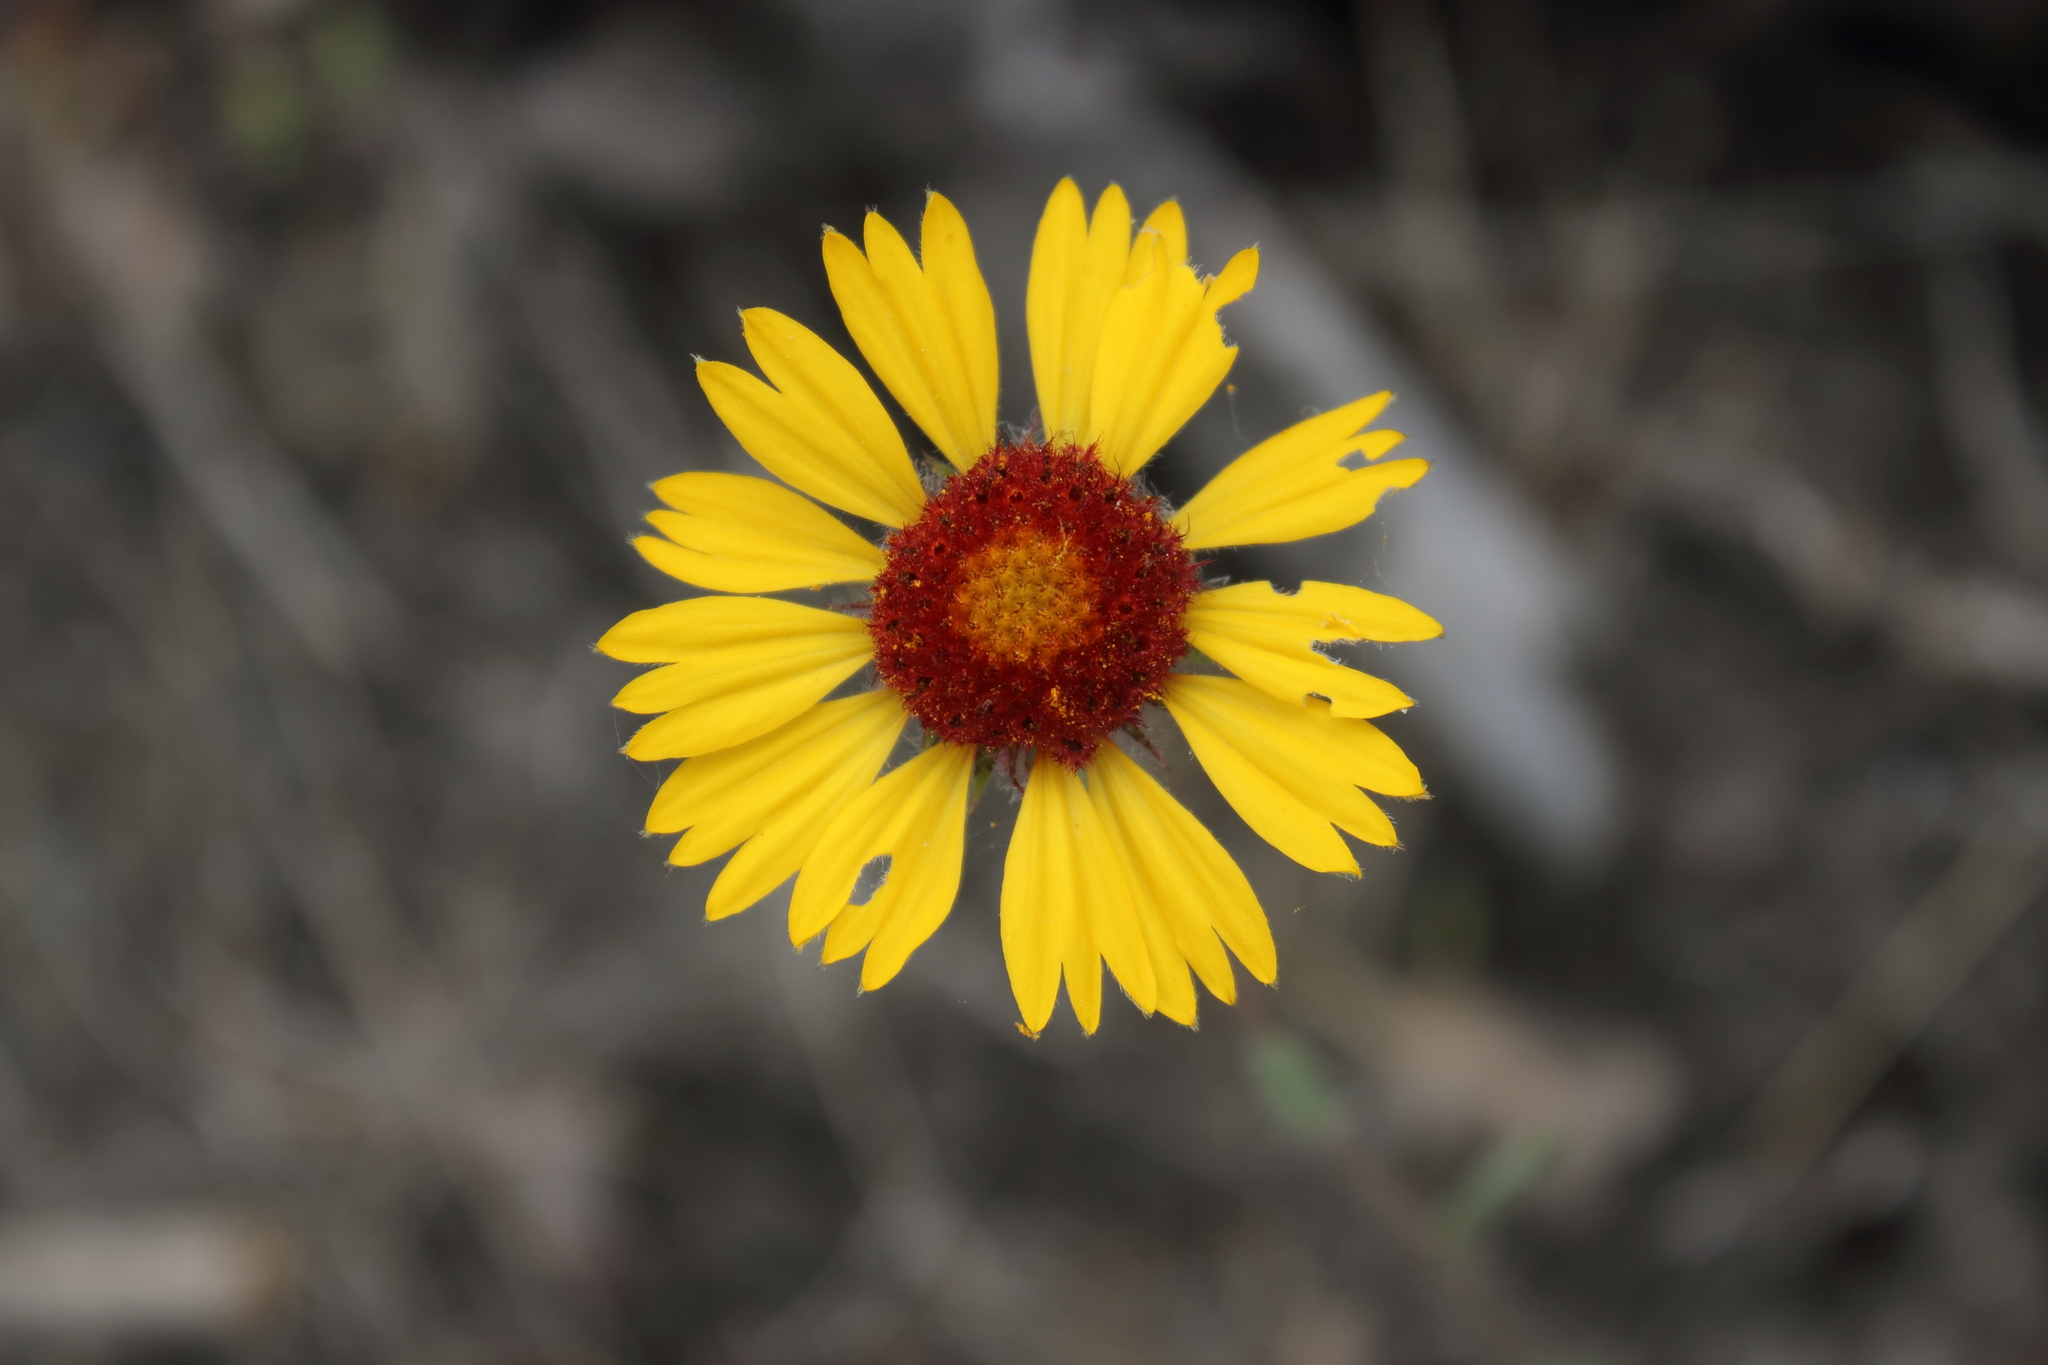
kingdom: Plantae
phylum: Tracheophyta
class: Magnoliopsida
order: Asterales
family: Asteraceae
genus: Gaillardia
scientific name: Gaillardia aristata
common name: Blanket-flower
